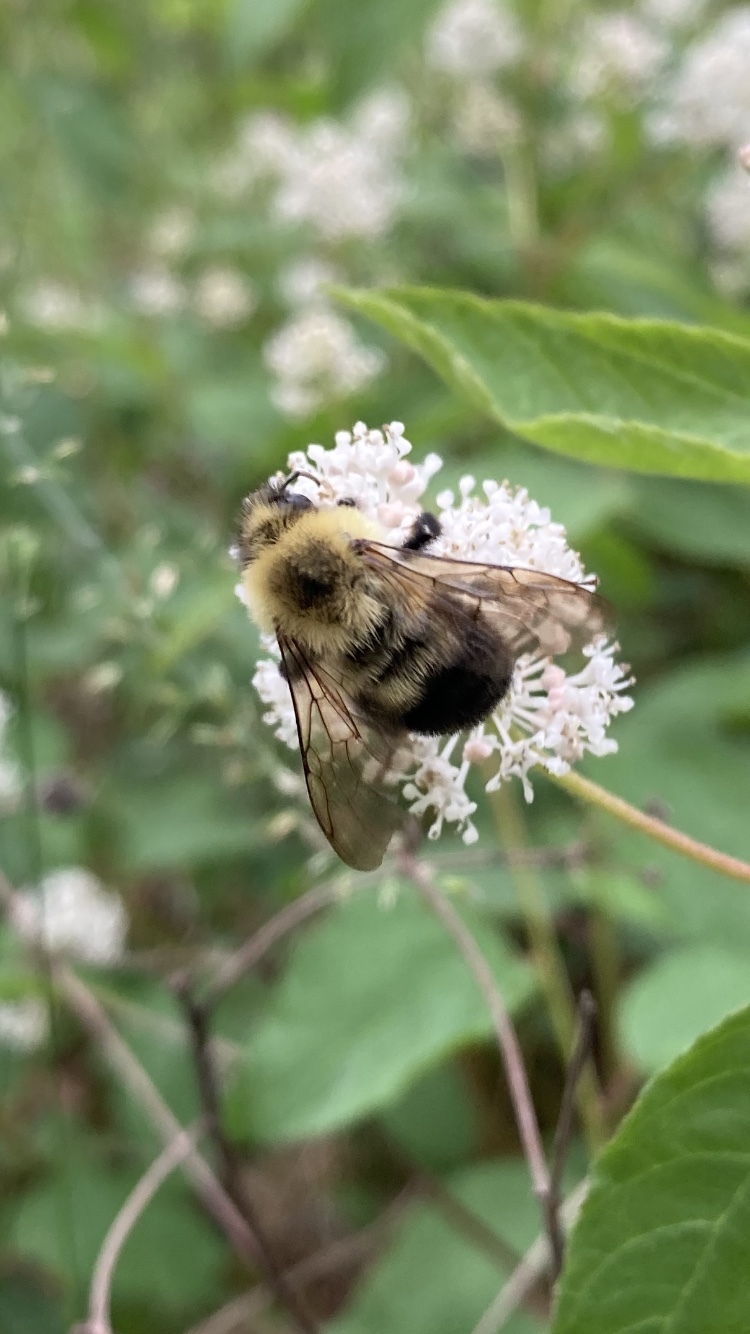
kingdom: Animalia
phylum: Arthropoda
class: Insecta
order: Hymenoptera
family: Apidae
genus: Bombus
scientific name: Bombus bimaculatus
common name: Two-spotted bumble bee
